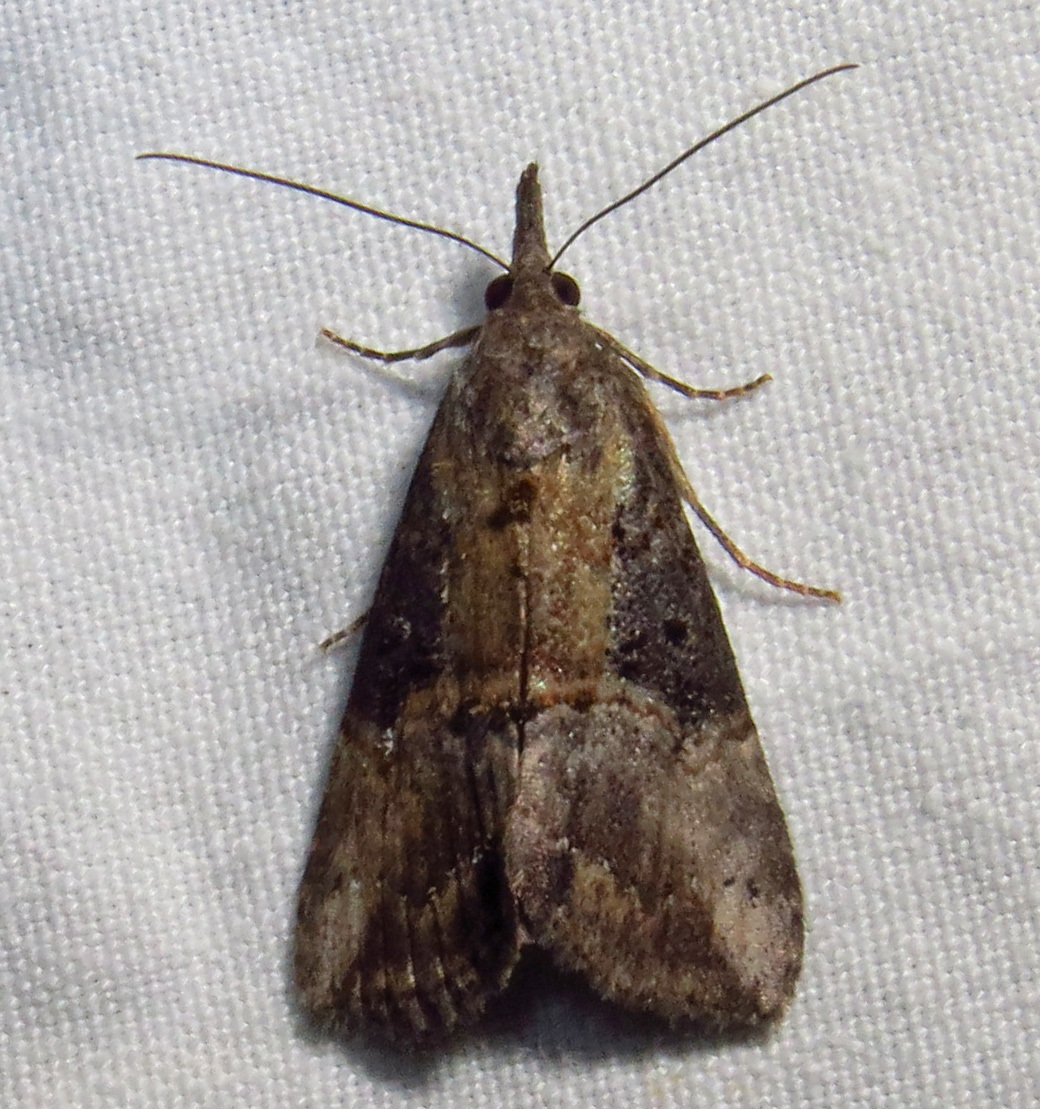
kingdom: Animalia
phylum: Arthropoda
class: Insecta
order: Lepidoptera
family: Erebidae
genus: Hypena
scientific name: Hypena scabra
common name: Green cloverworm
